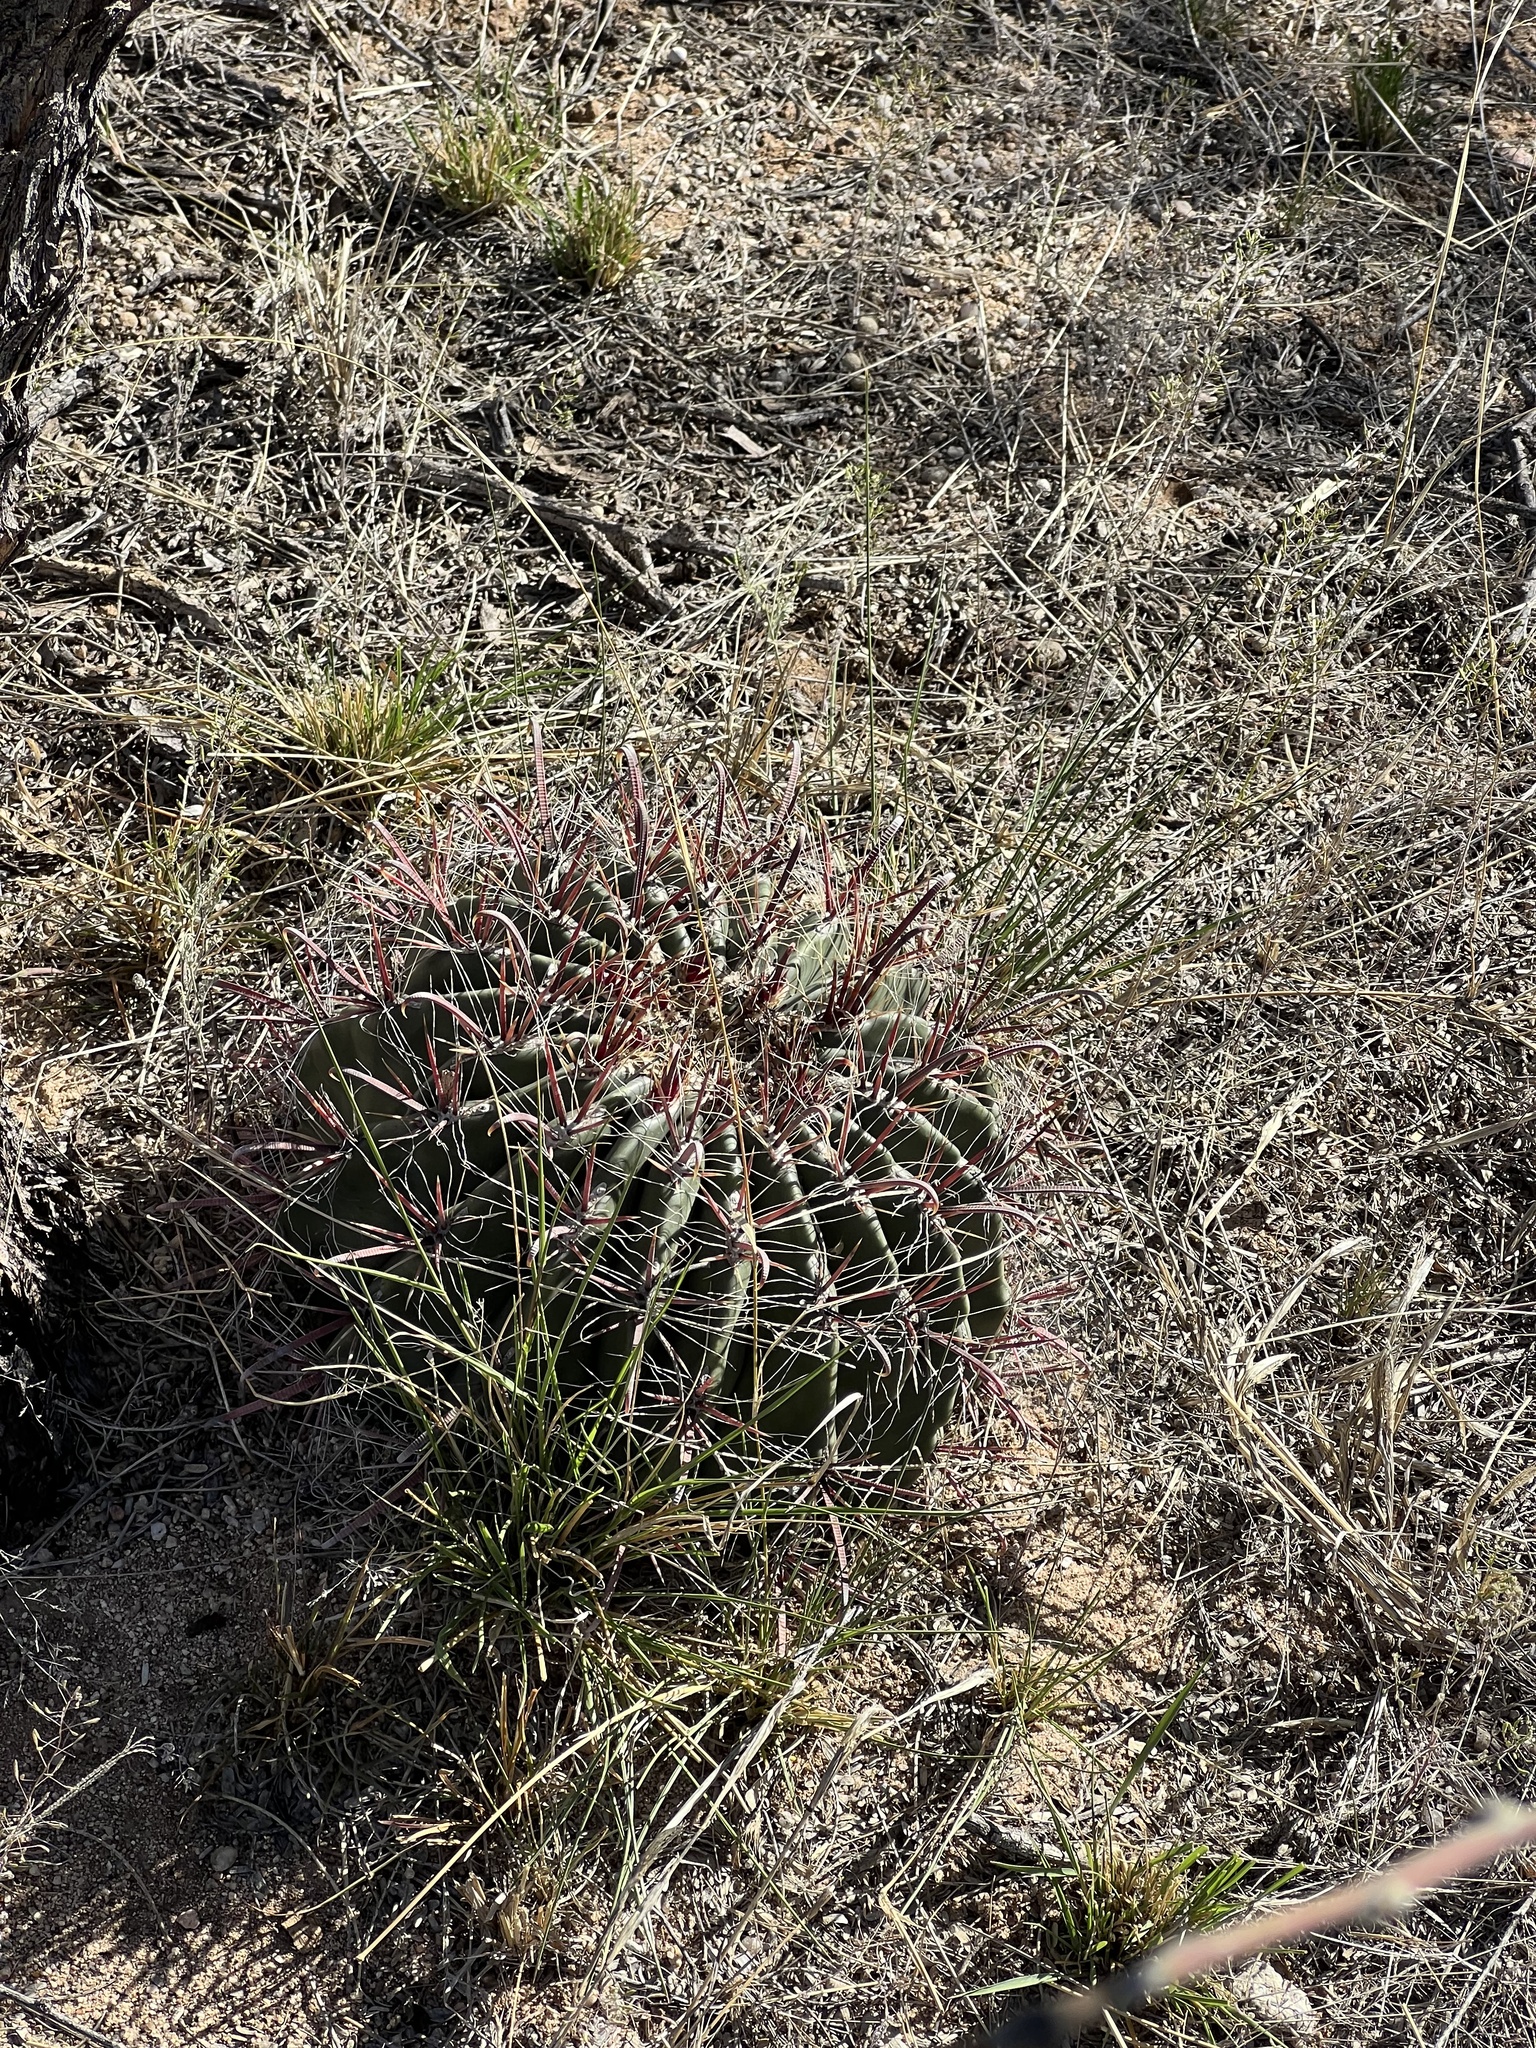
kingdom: Plantae
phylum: Tracheophyta
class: Magnoliopsida
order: Caryophyllales
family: Cactaceae
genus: Ferocactus
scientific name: Ferocactus wislizeni
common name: Candy barrel cactus
